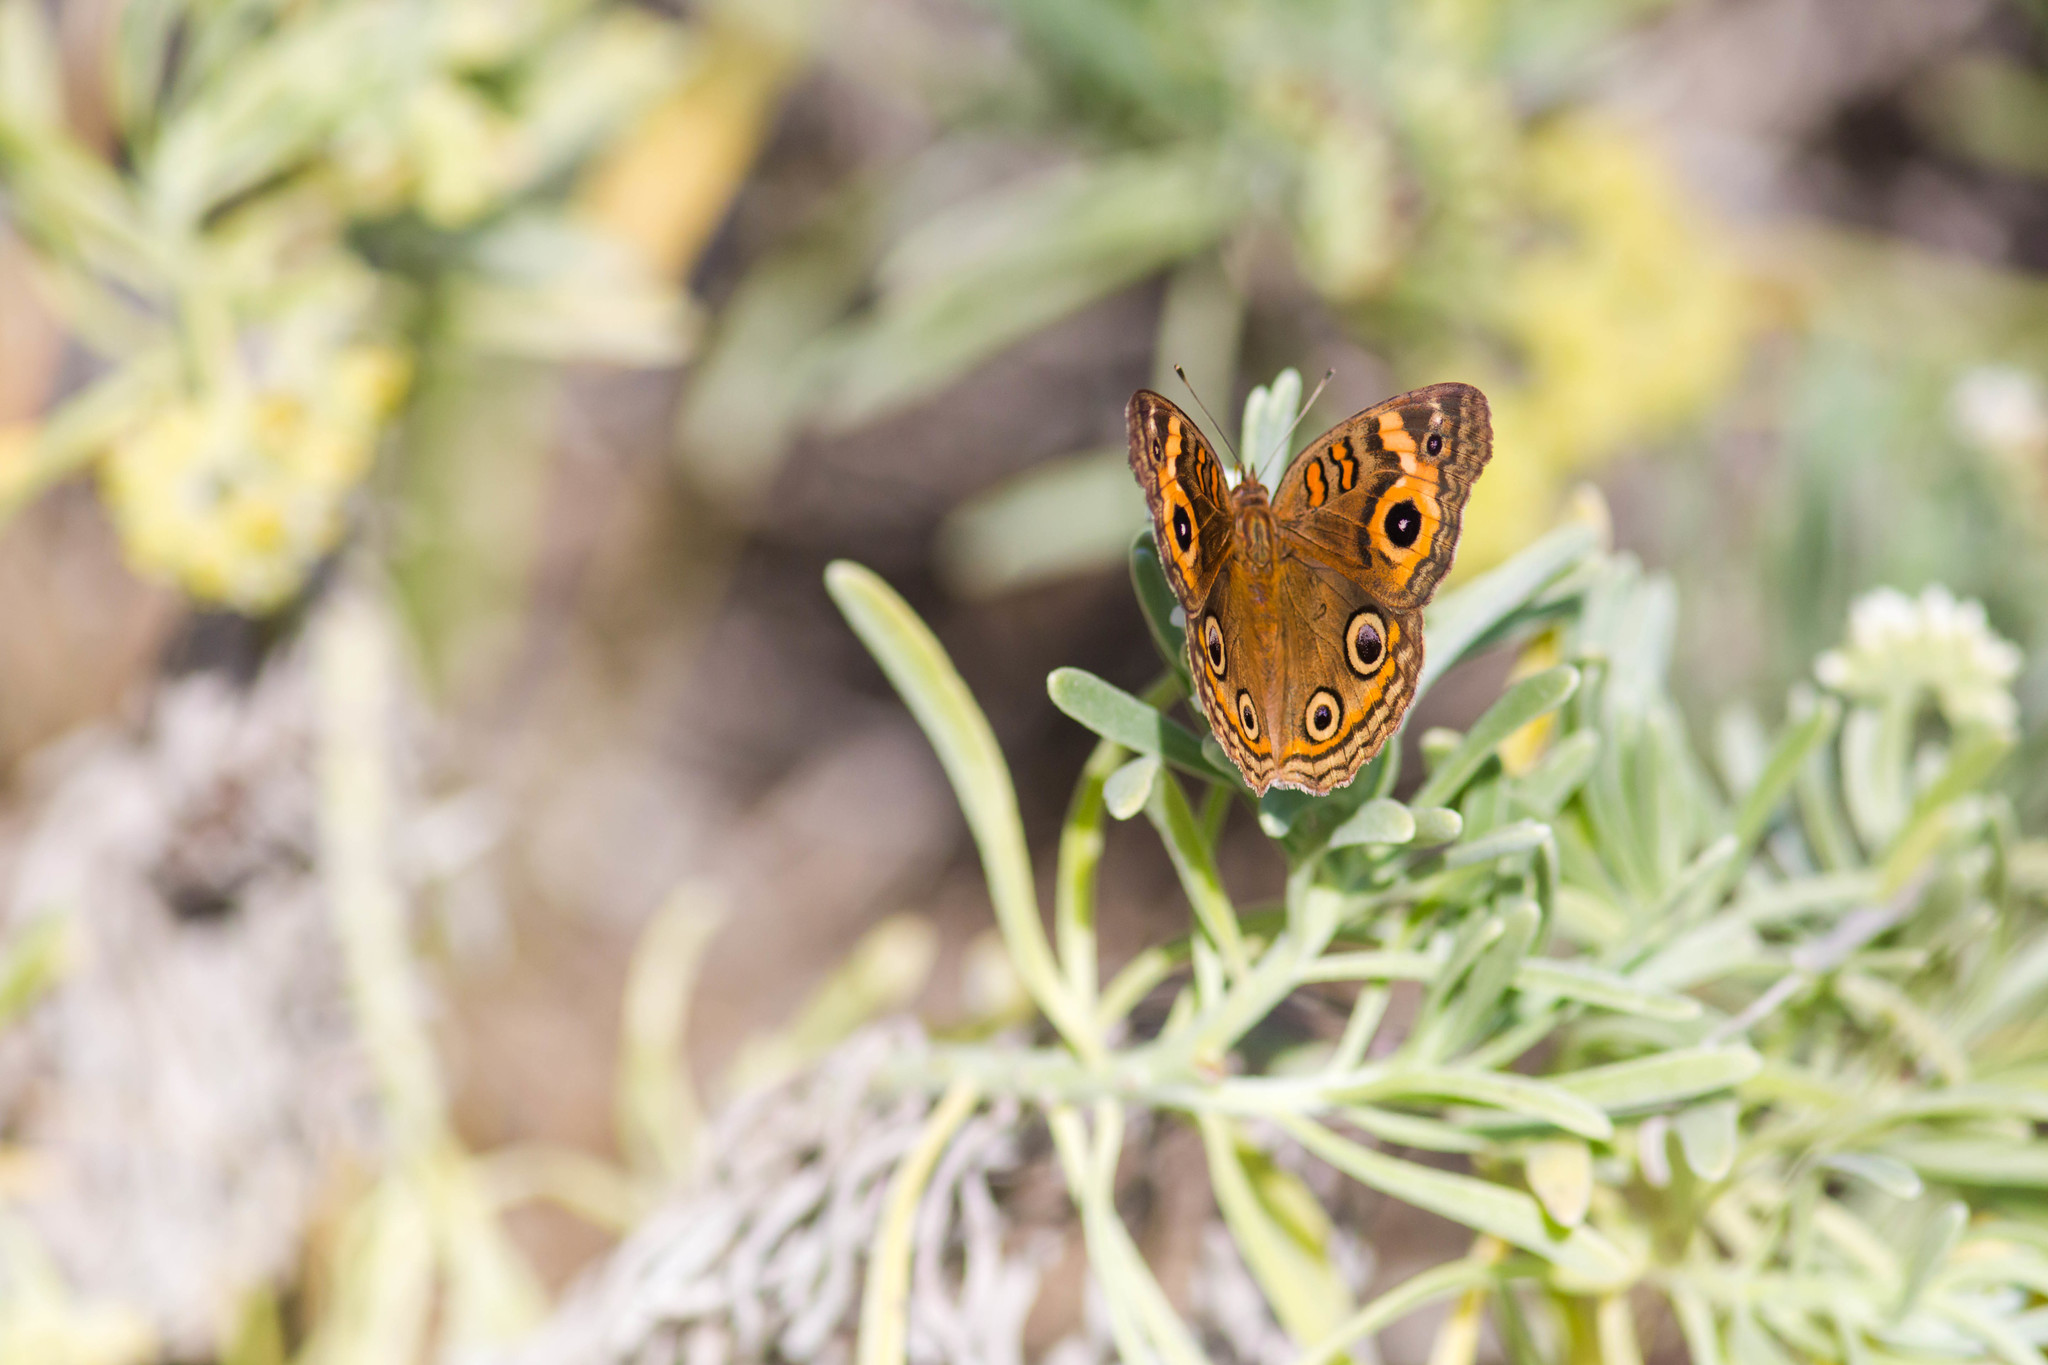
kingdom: Animalia
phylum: Arthropoda
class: Insecta
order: Lepidoptera
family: Nymphalidae
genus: Junonia
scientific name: Junonia neildi
